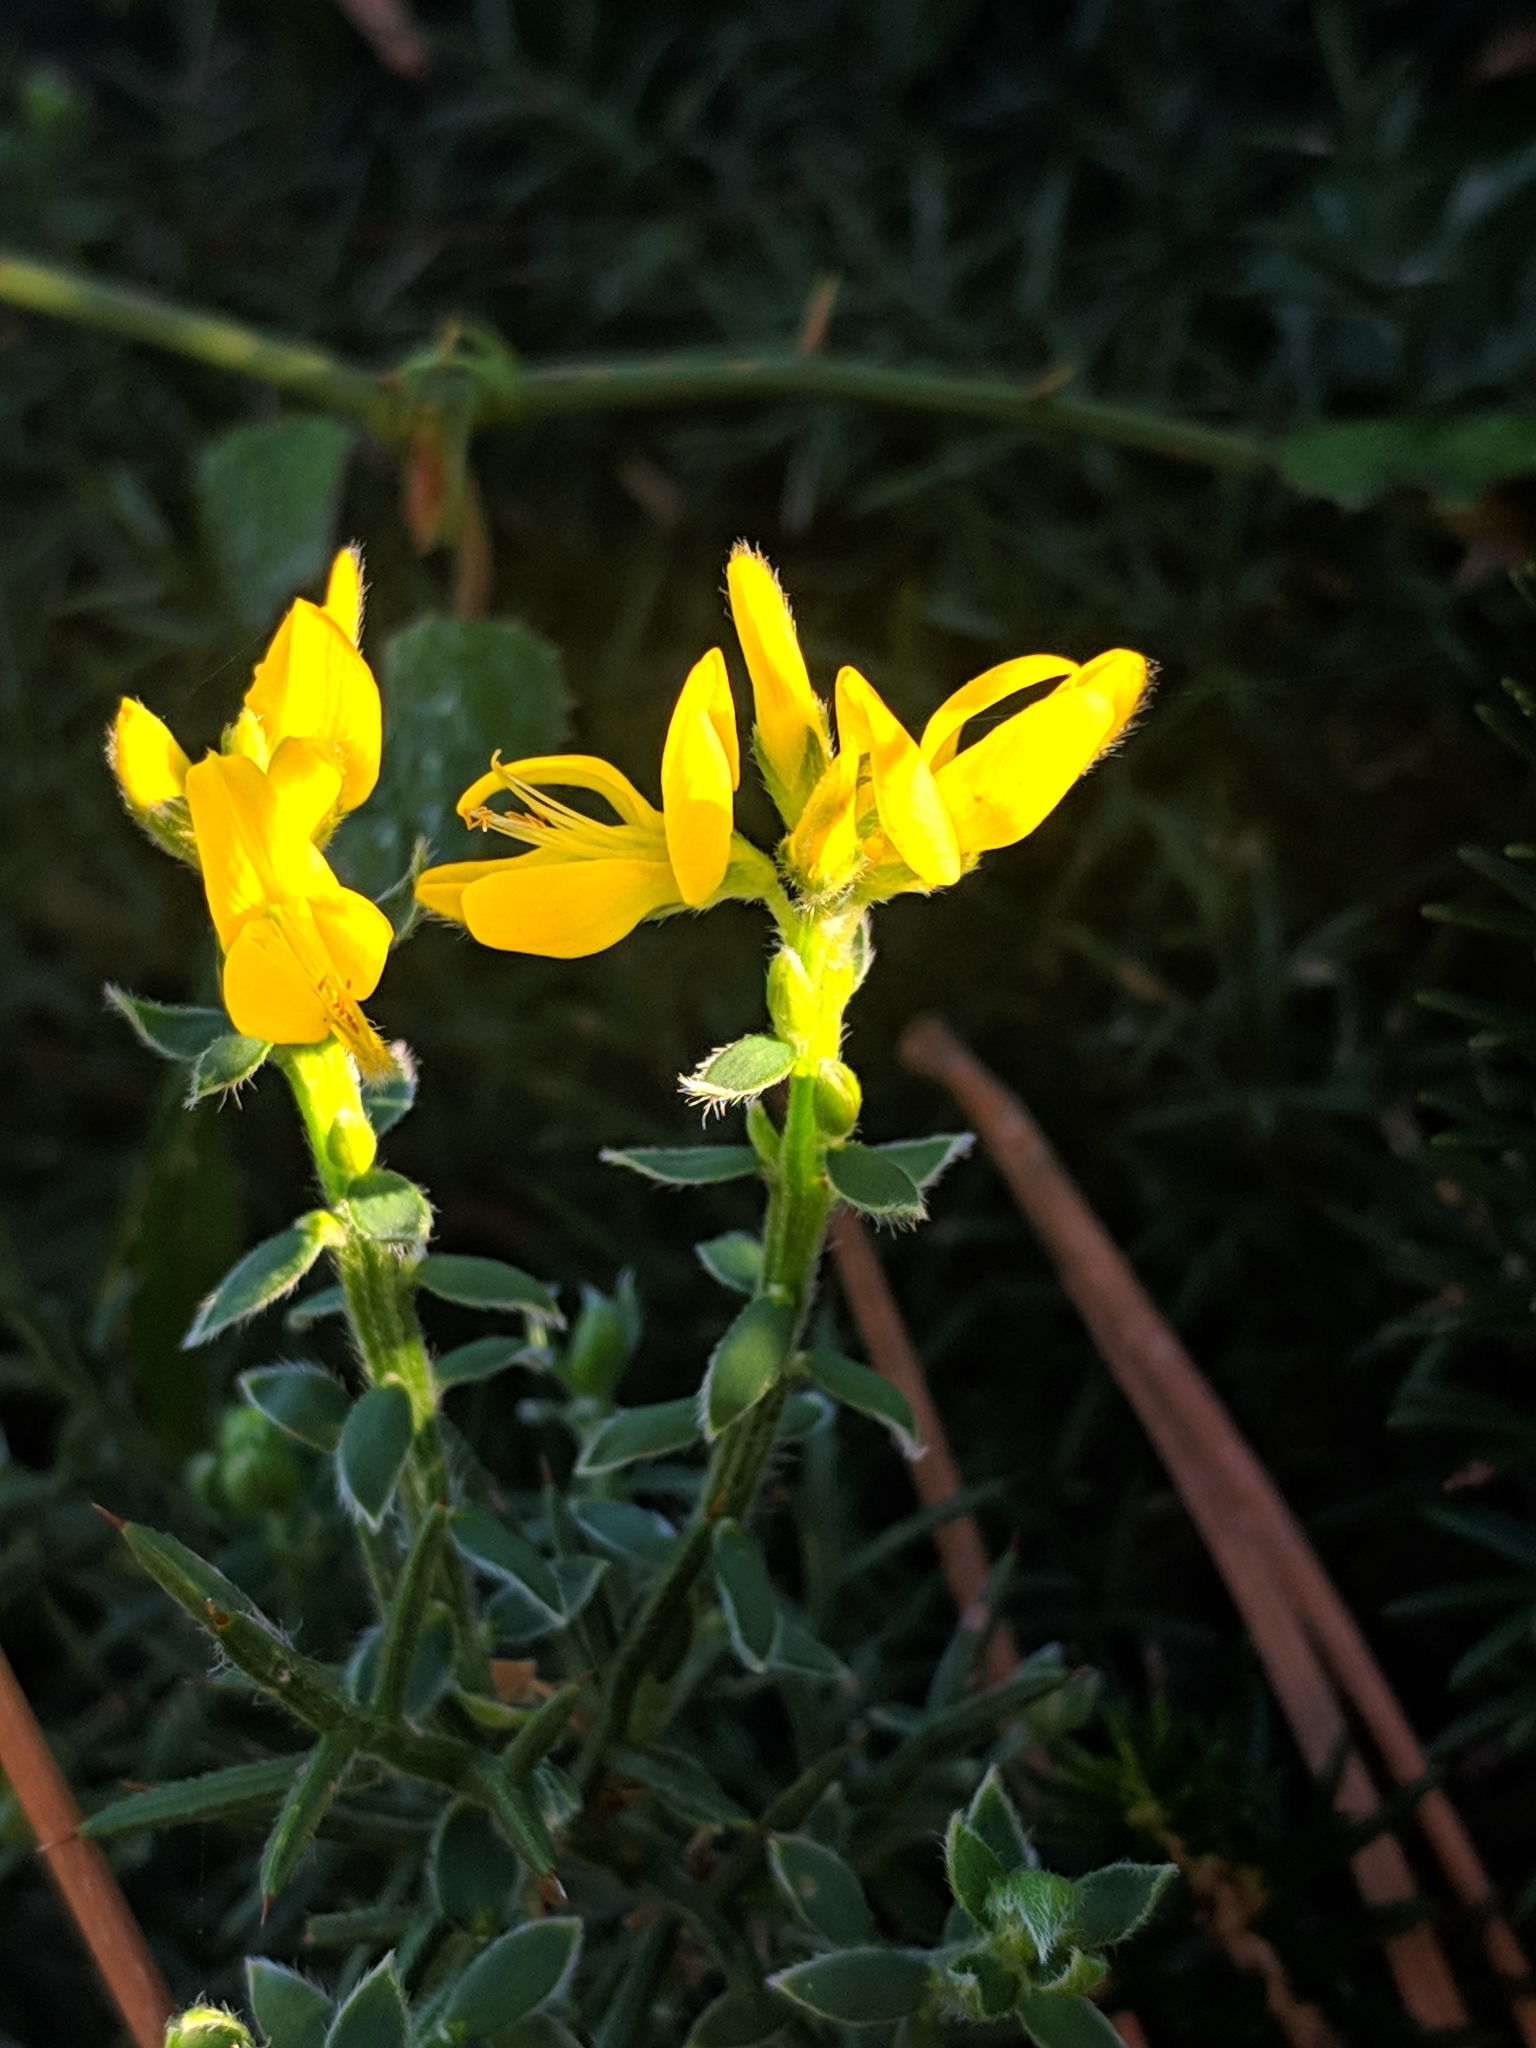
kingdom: Plantae
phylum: Tracheophyta
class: Magnoliopsida
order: Fabales
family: Fabaceae
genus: Genista
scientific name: Genista hispanica
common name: Spanish gorse
